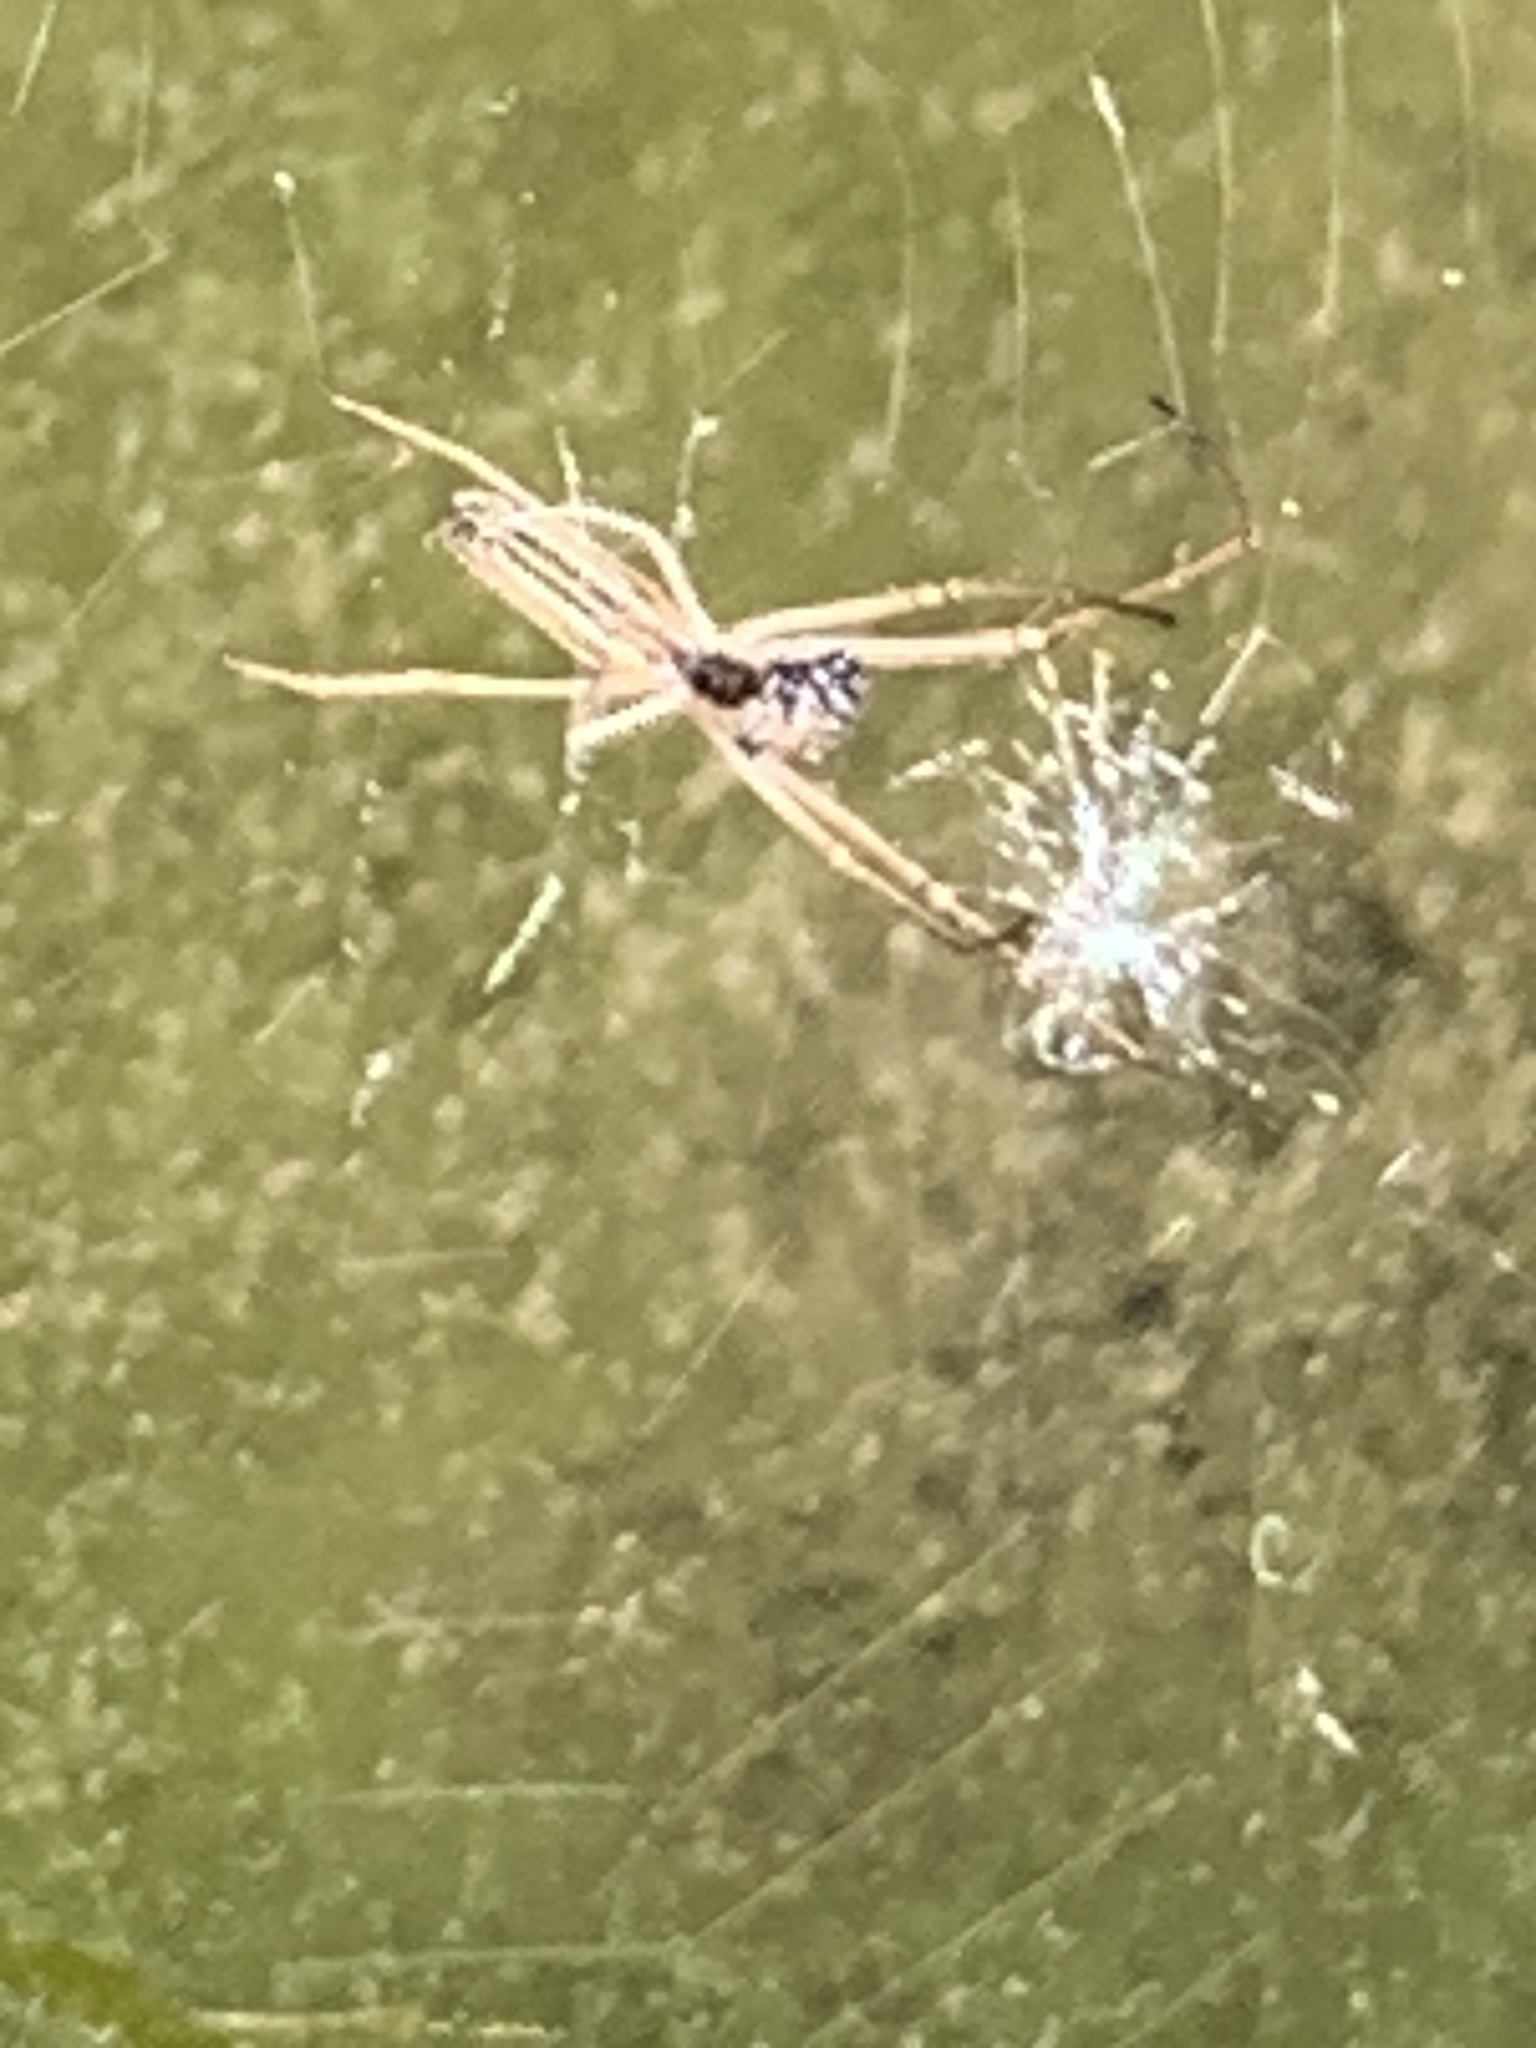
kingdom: Animalia
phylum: Arthropoda
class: Arachnida
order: Araneae
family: Tetragnathidae
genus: Tetragnatha
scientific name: Tetragnatha
